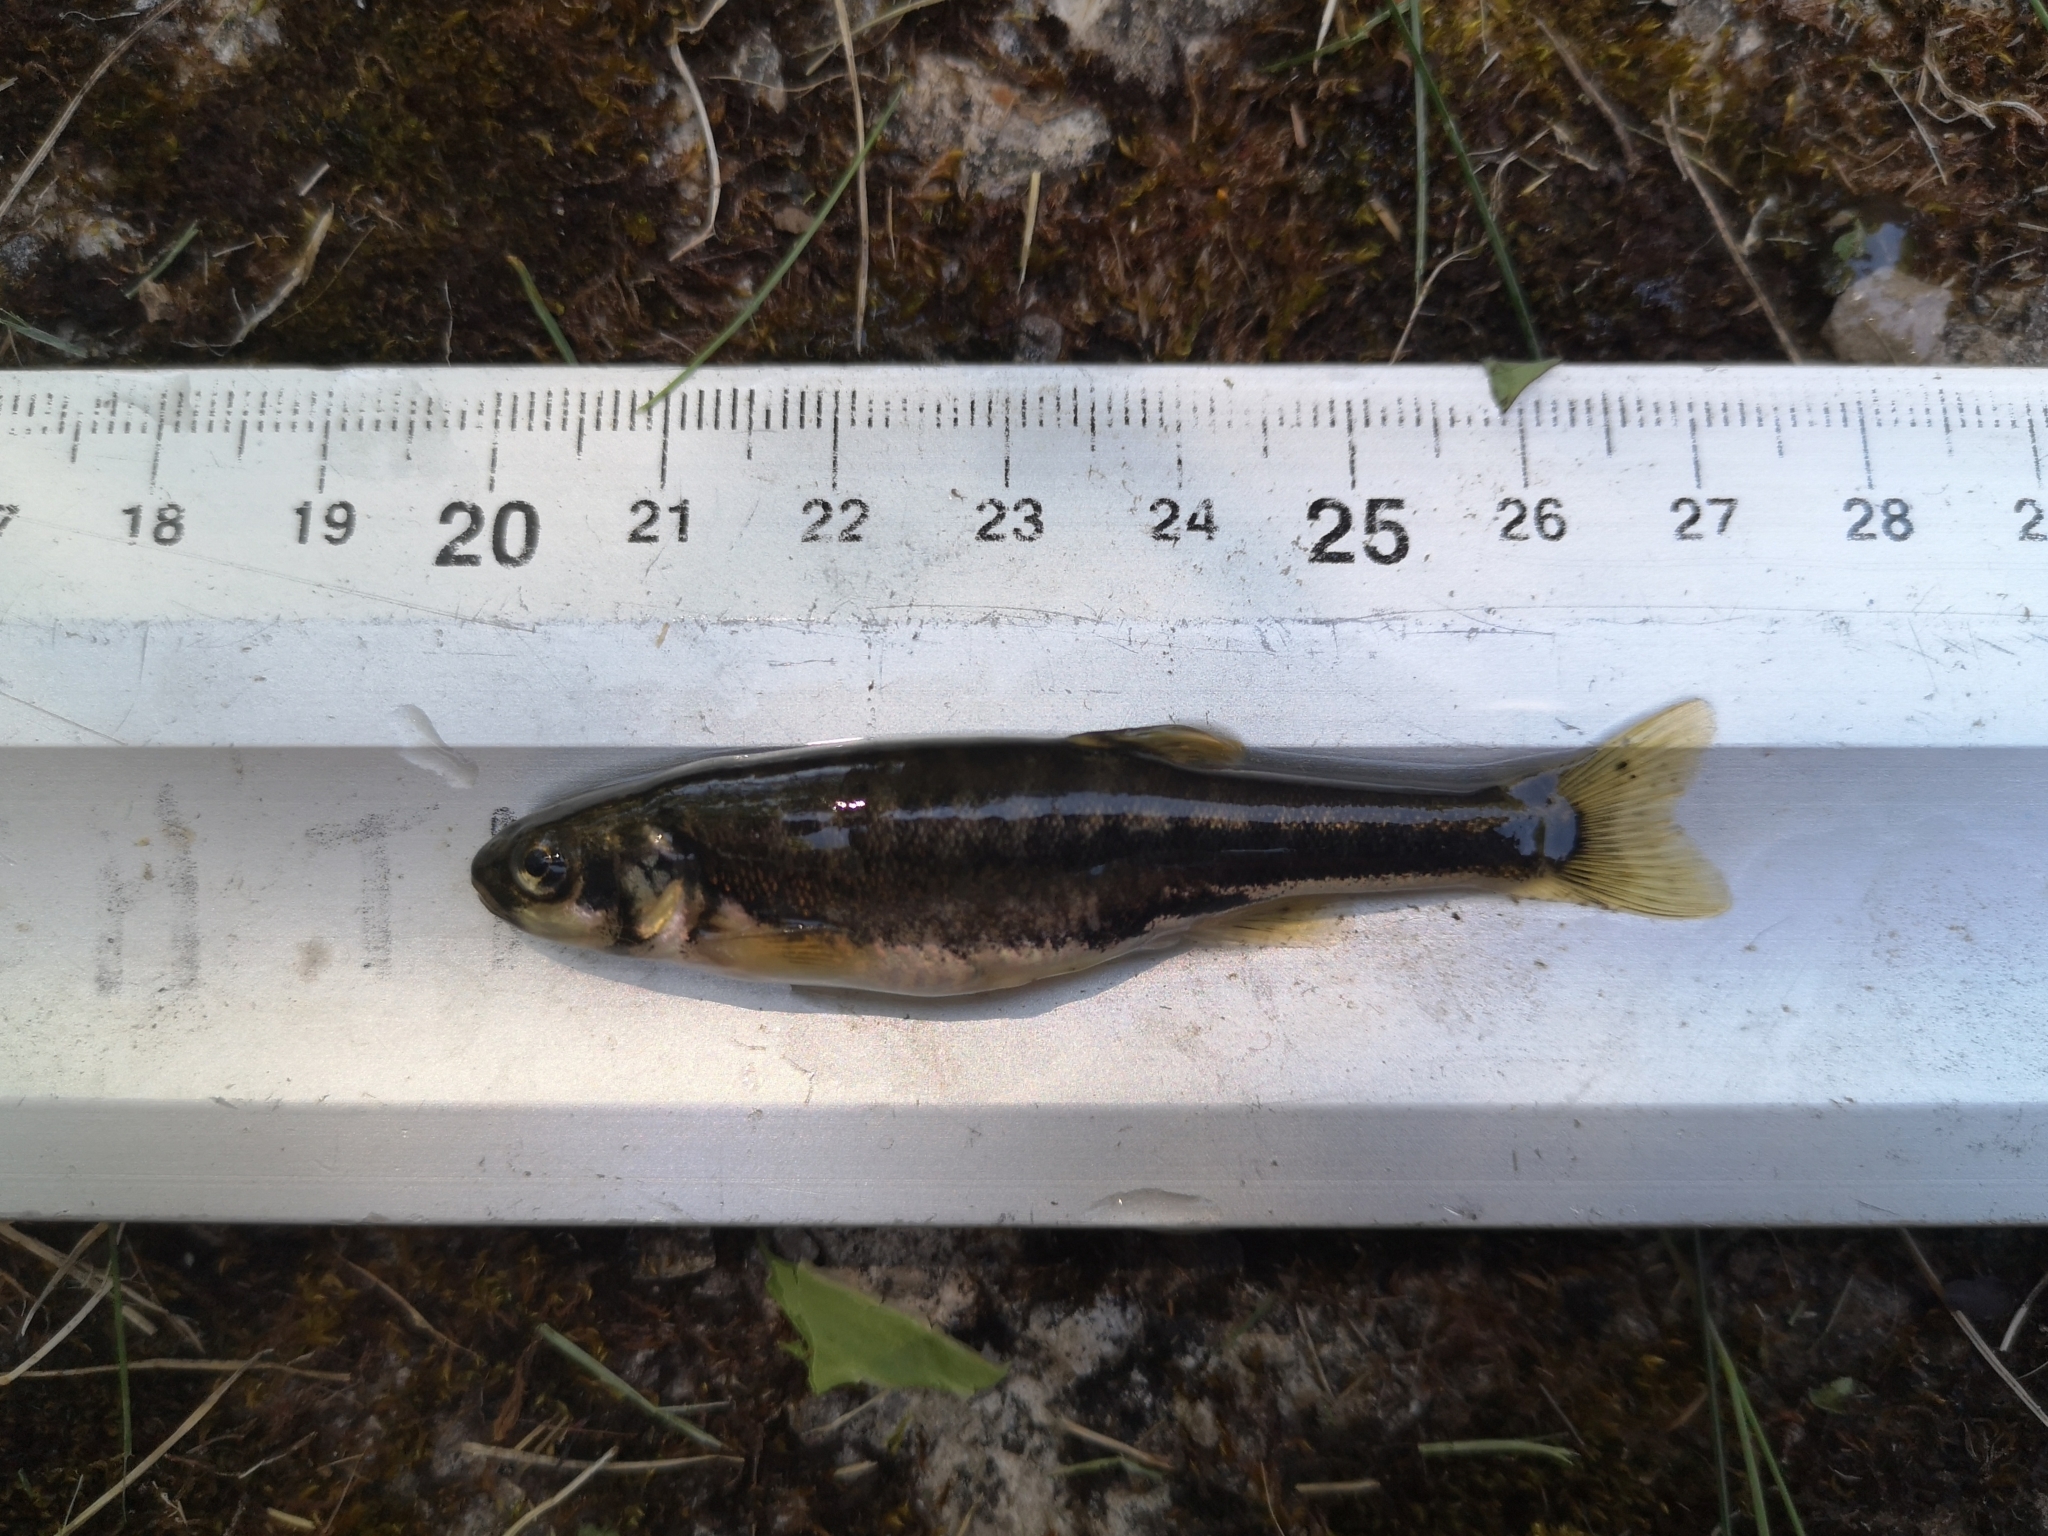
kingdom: Animalia
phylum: Chordata
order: Cypriniformes
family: Cyprinidae
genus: Phoxinus
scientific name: Phoxinus phoxinus
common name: Minnow
